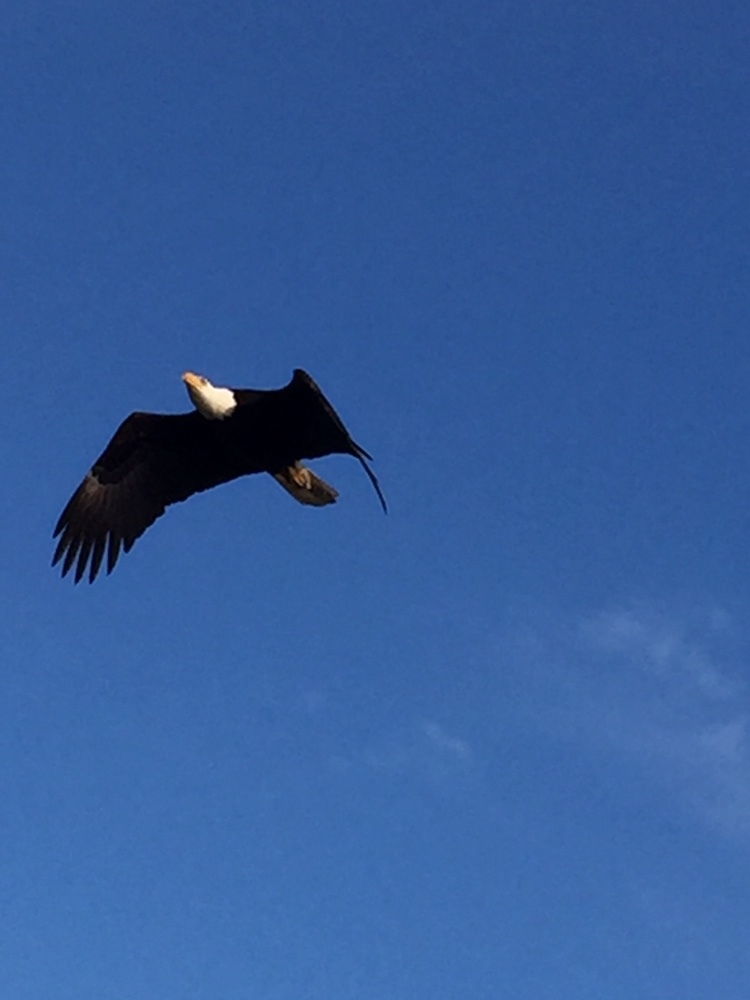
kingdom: Animalia
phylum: Chordata
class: Aves
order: Accipitriformes
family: Accipitridae
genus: Haliaeetus
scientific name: Haliaeetus leucocephalus
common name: Bald eagle
